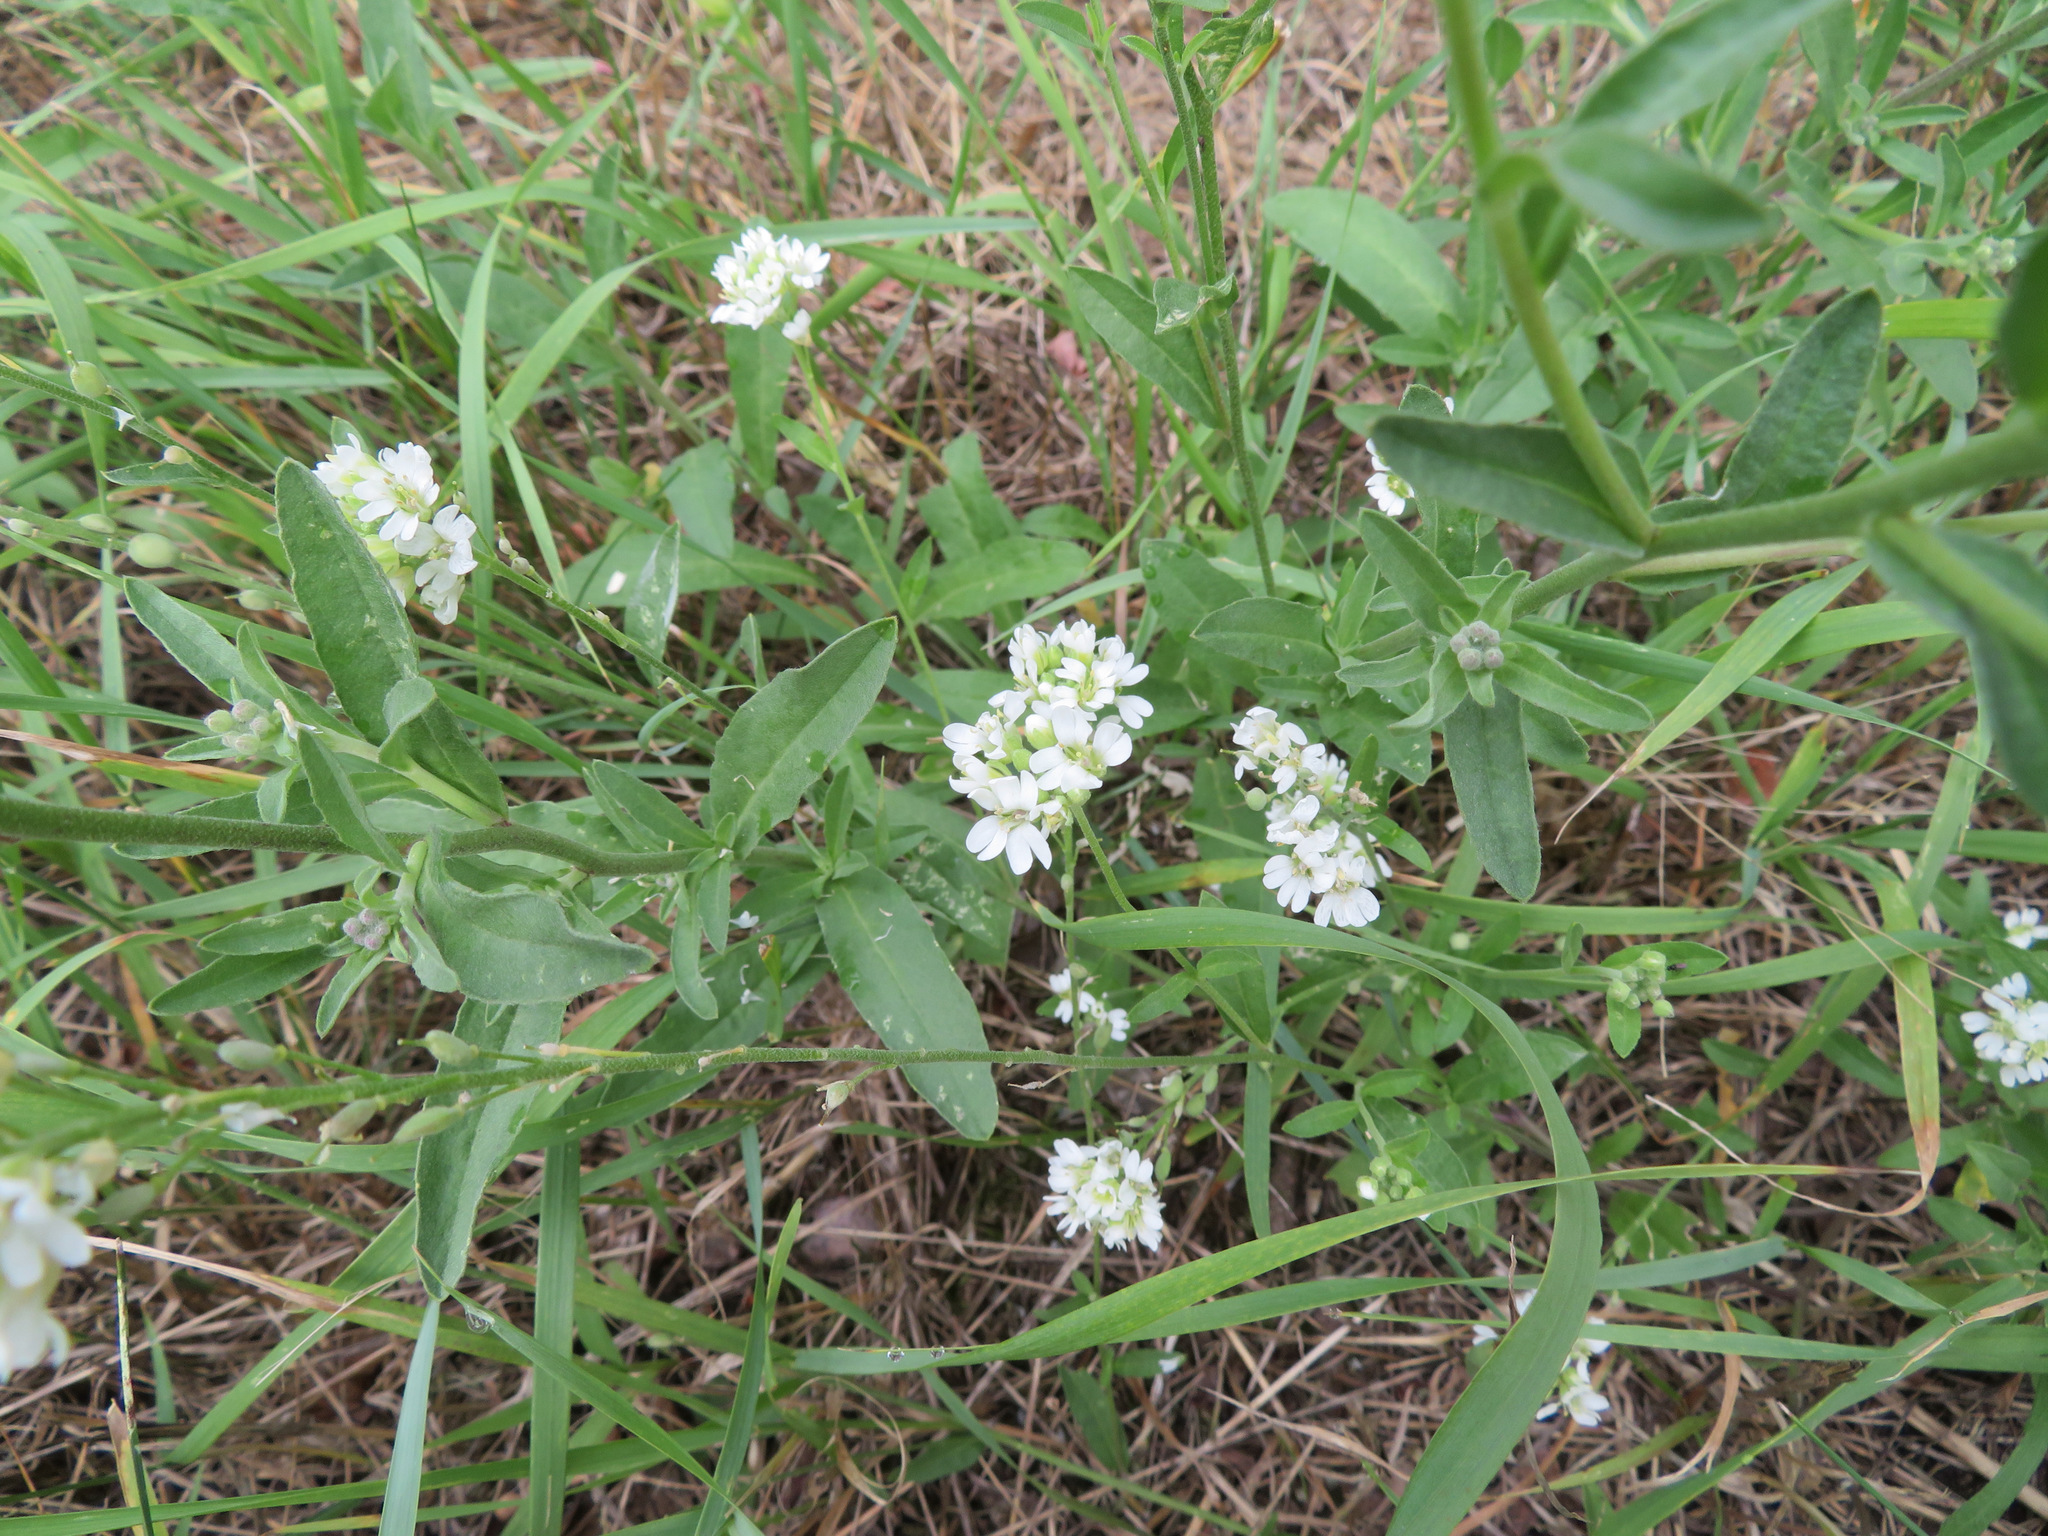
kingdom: Plantae
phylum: Tracheophyta
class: Magnoliopsida
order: Brassicales
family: Brassicaceae
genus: Berteroa
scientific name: Berteroa incana
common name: Hoary alison
